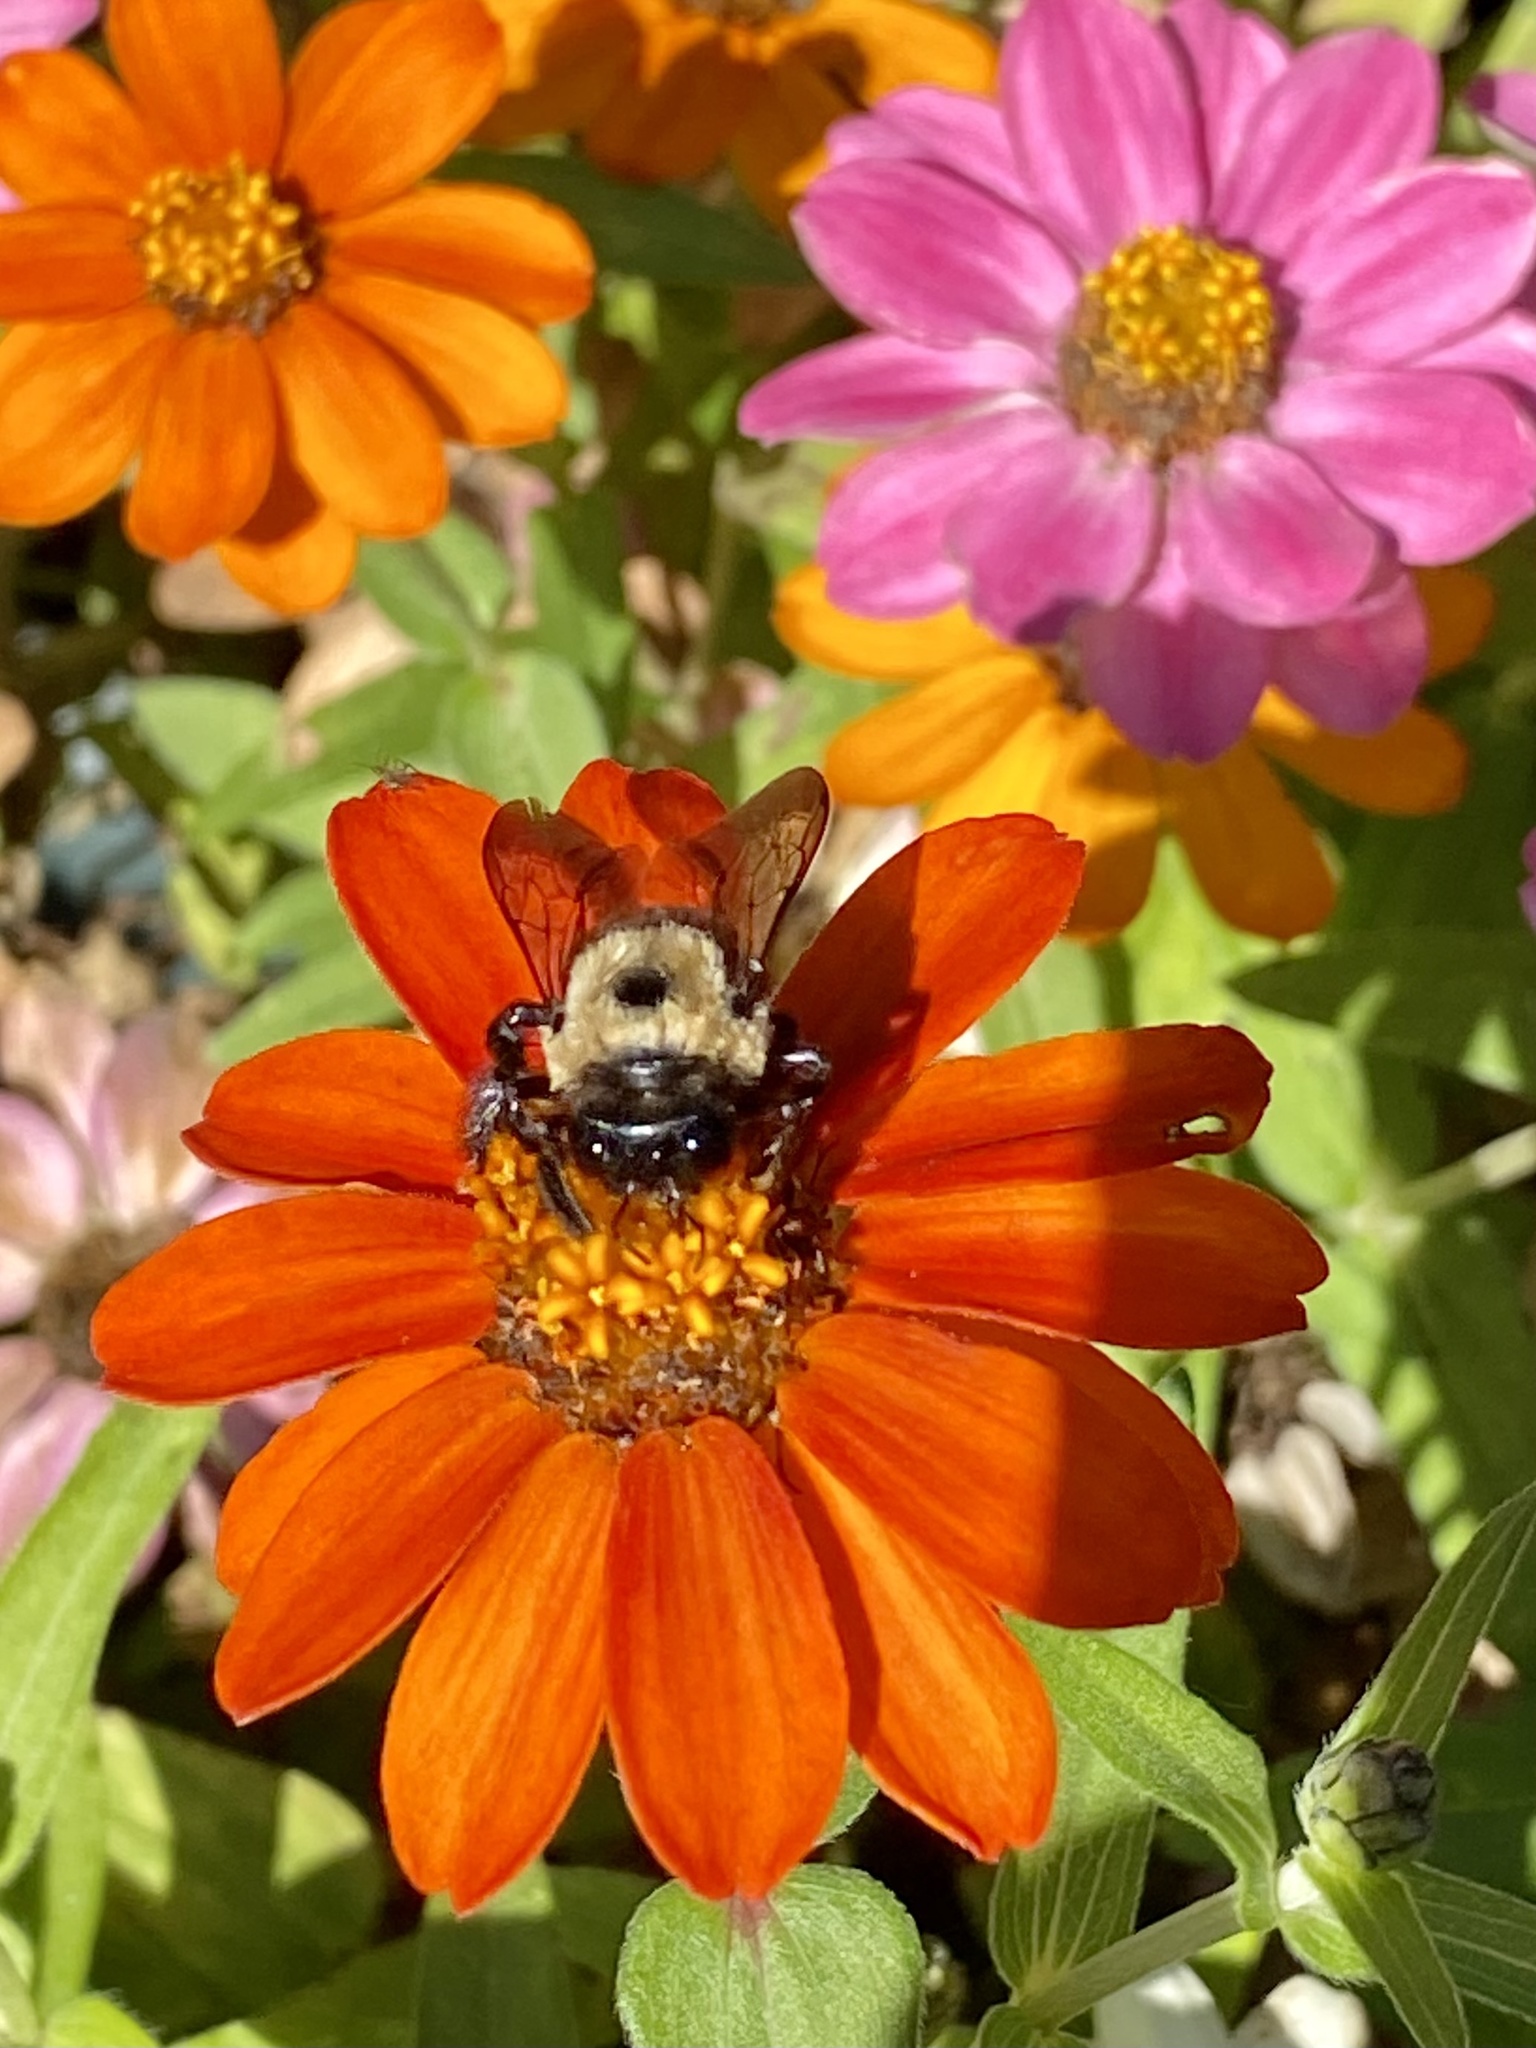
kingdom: Animalia
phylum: Arthropoda
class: Insecta
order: Hymenoptera
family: Apidae
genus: Xylocopa
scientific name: Xylocopa virginica
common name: Carpenter bee
